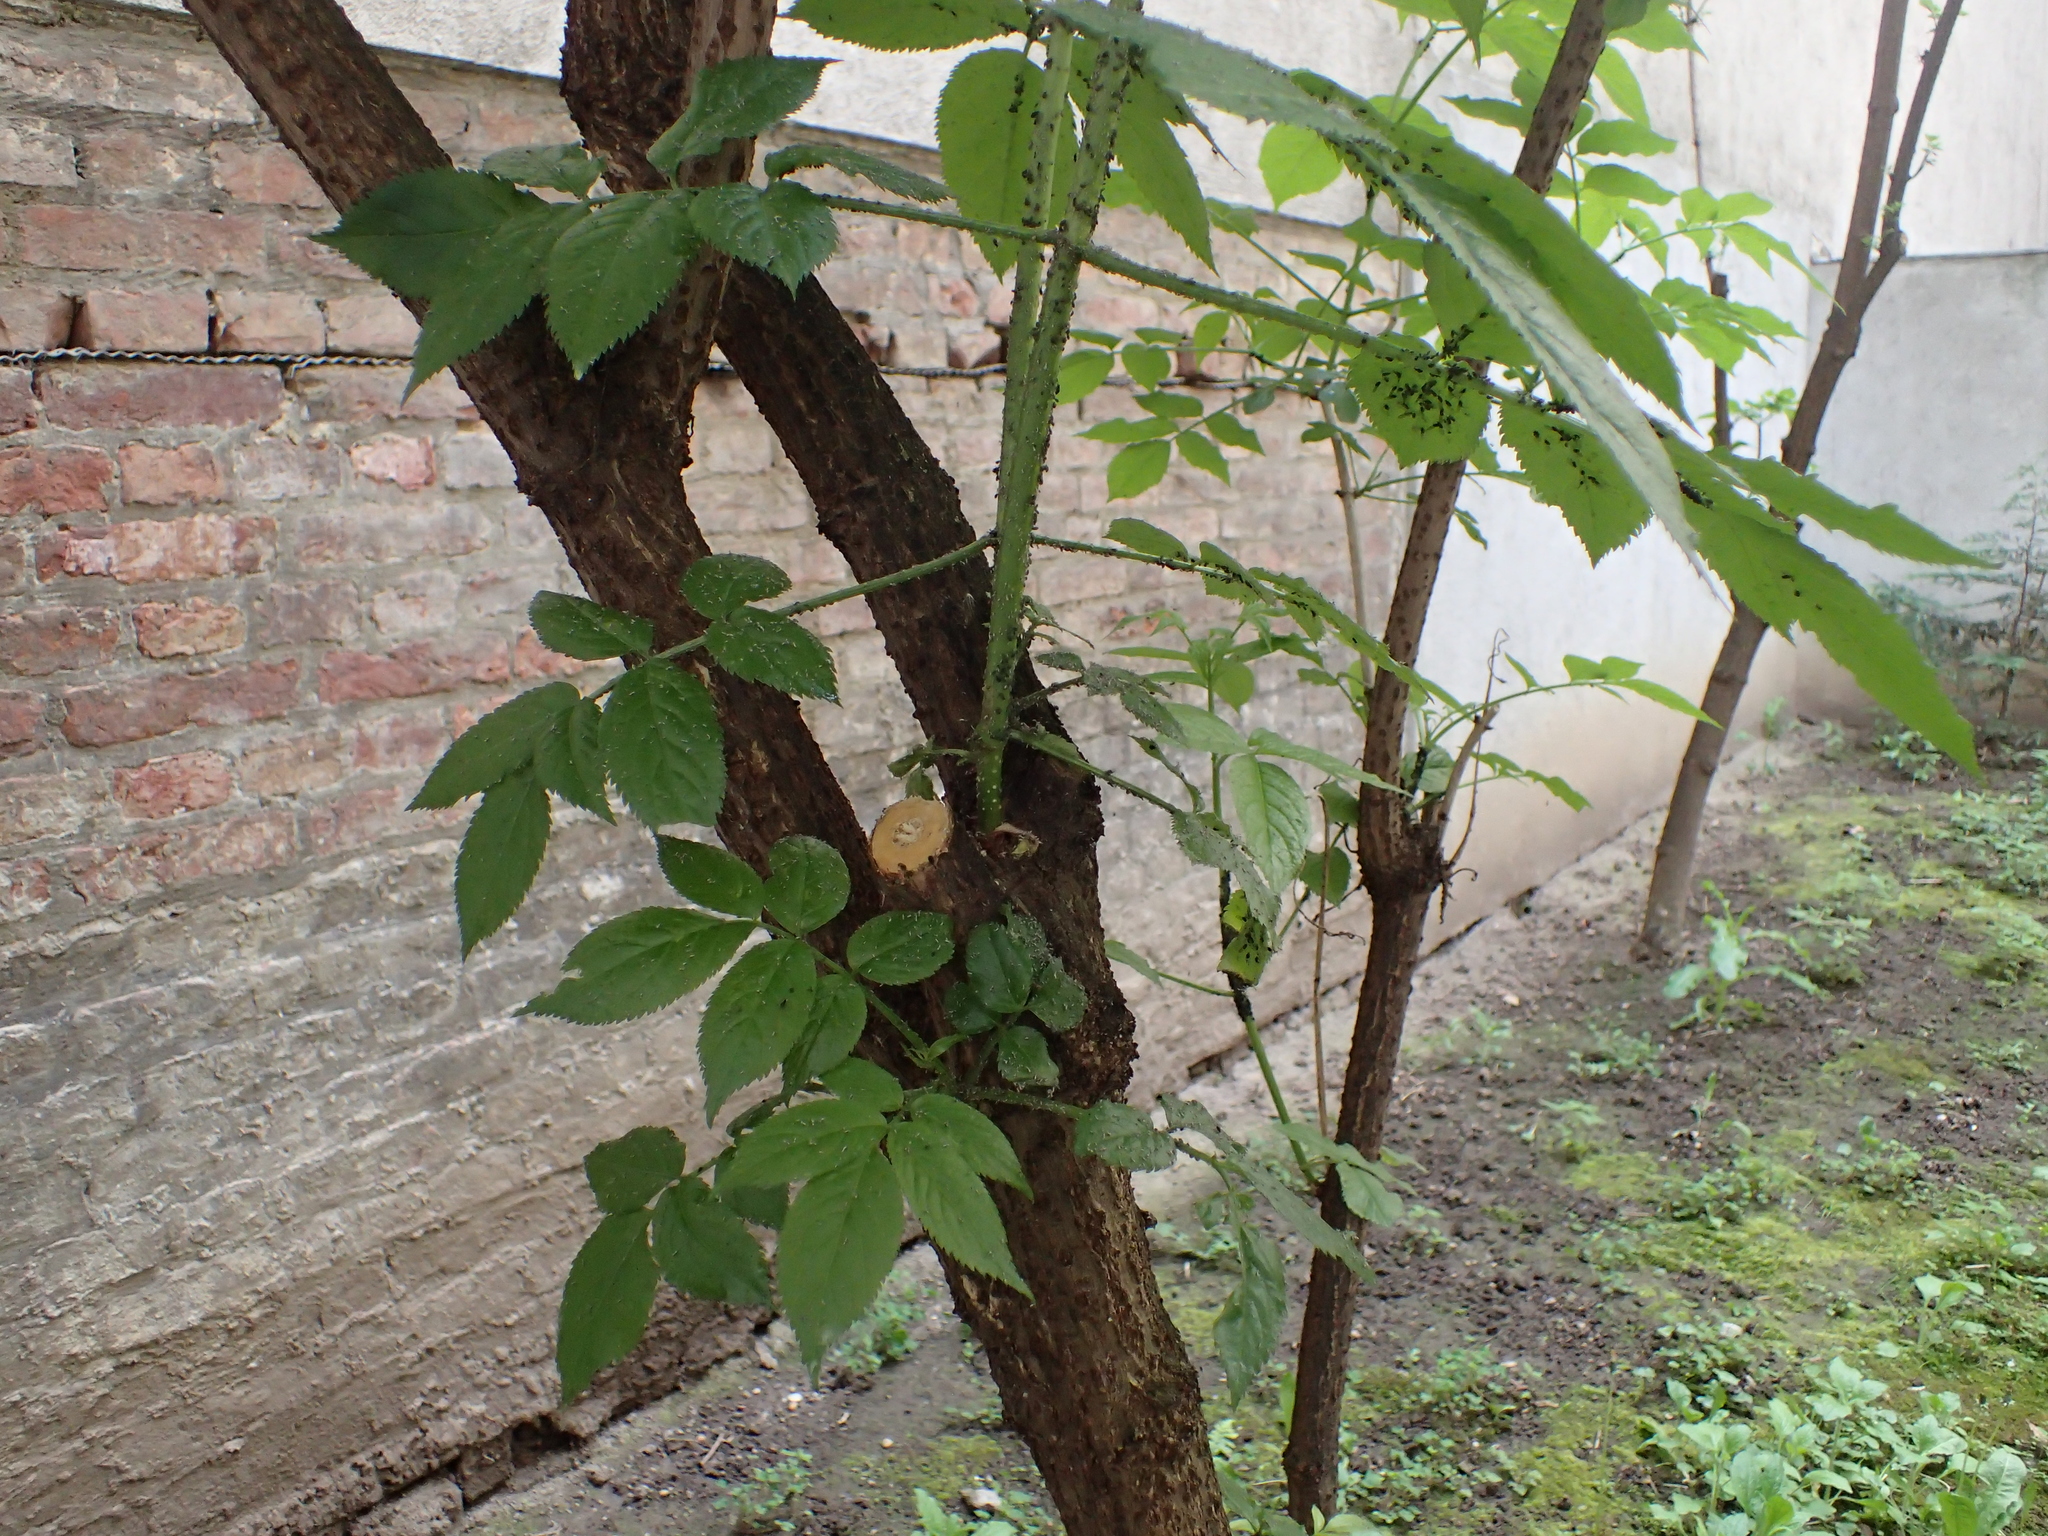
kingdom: Plantae
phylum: Tracheophyta
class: Magnoliopsida
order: Dipsacales
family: Viburnaceae
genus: Sambucus
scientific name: Sambucus nigra
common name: Elder
